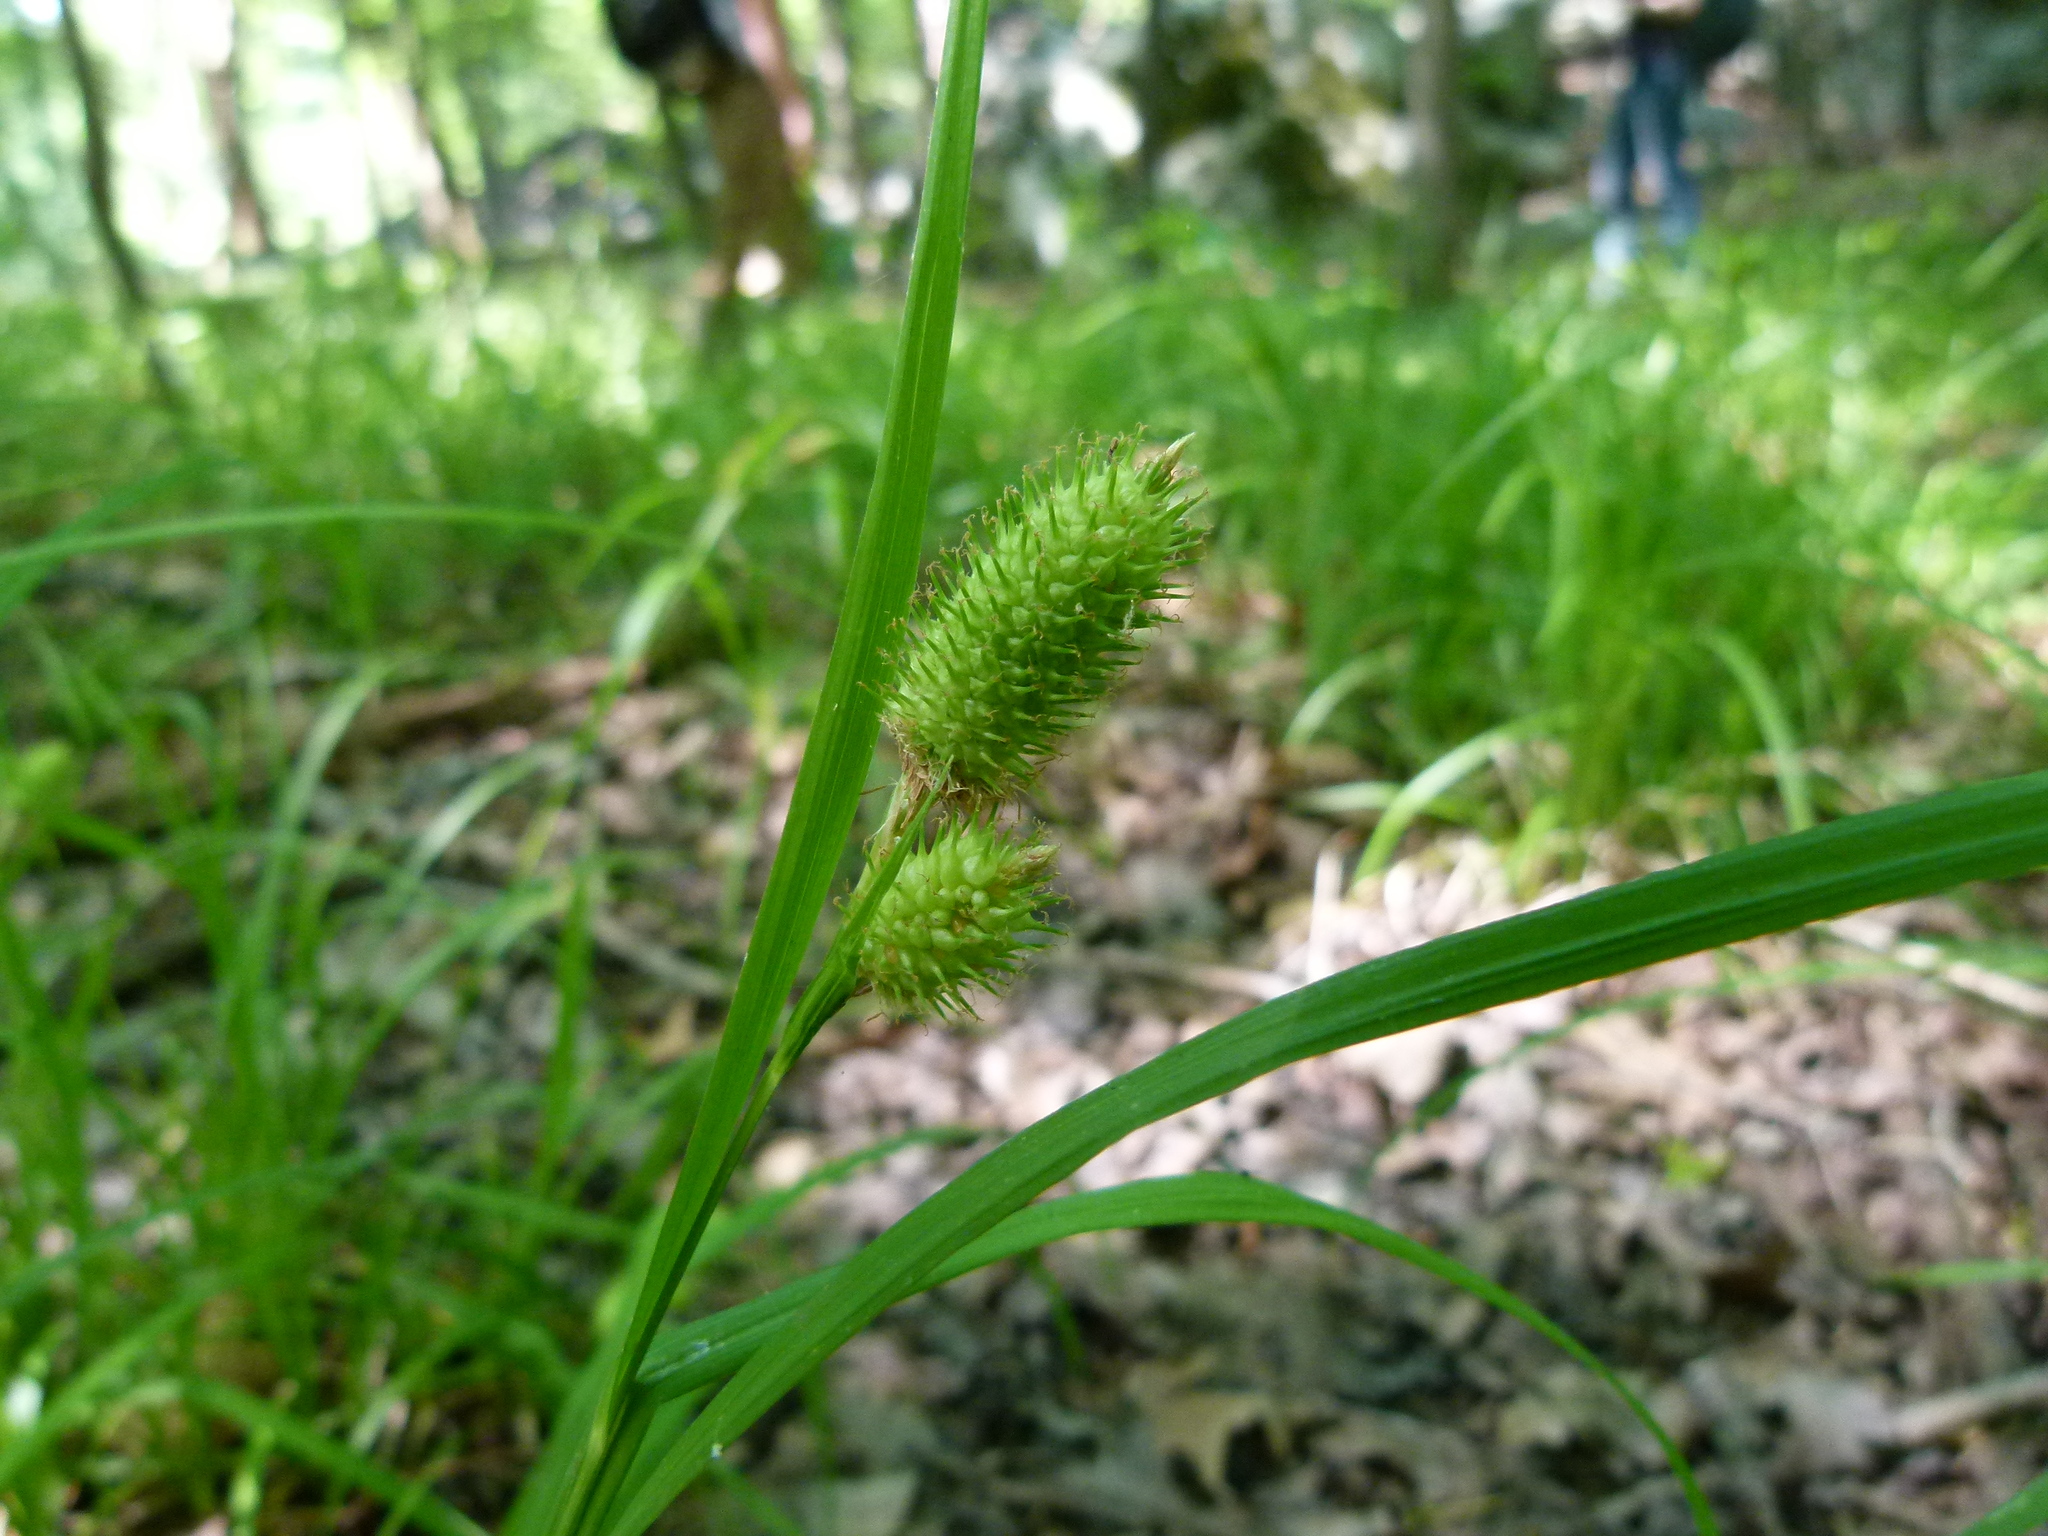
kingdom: Plantae
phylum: Tracheophyta
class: Liliopsida
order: Poales
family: Cyperaceae
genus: Carex
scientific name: Carex typhina
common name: Cattail sedge
